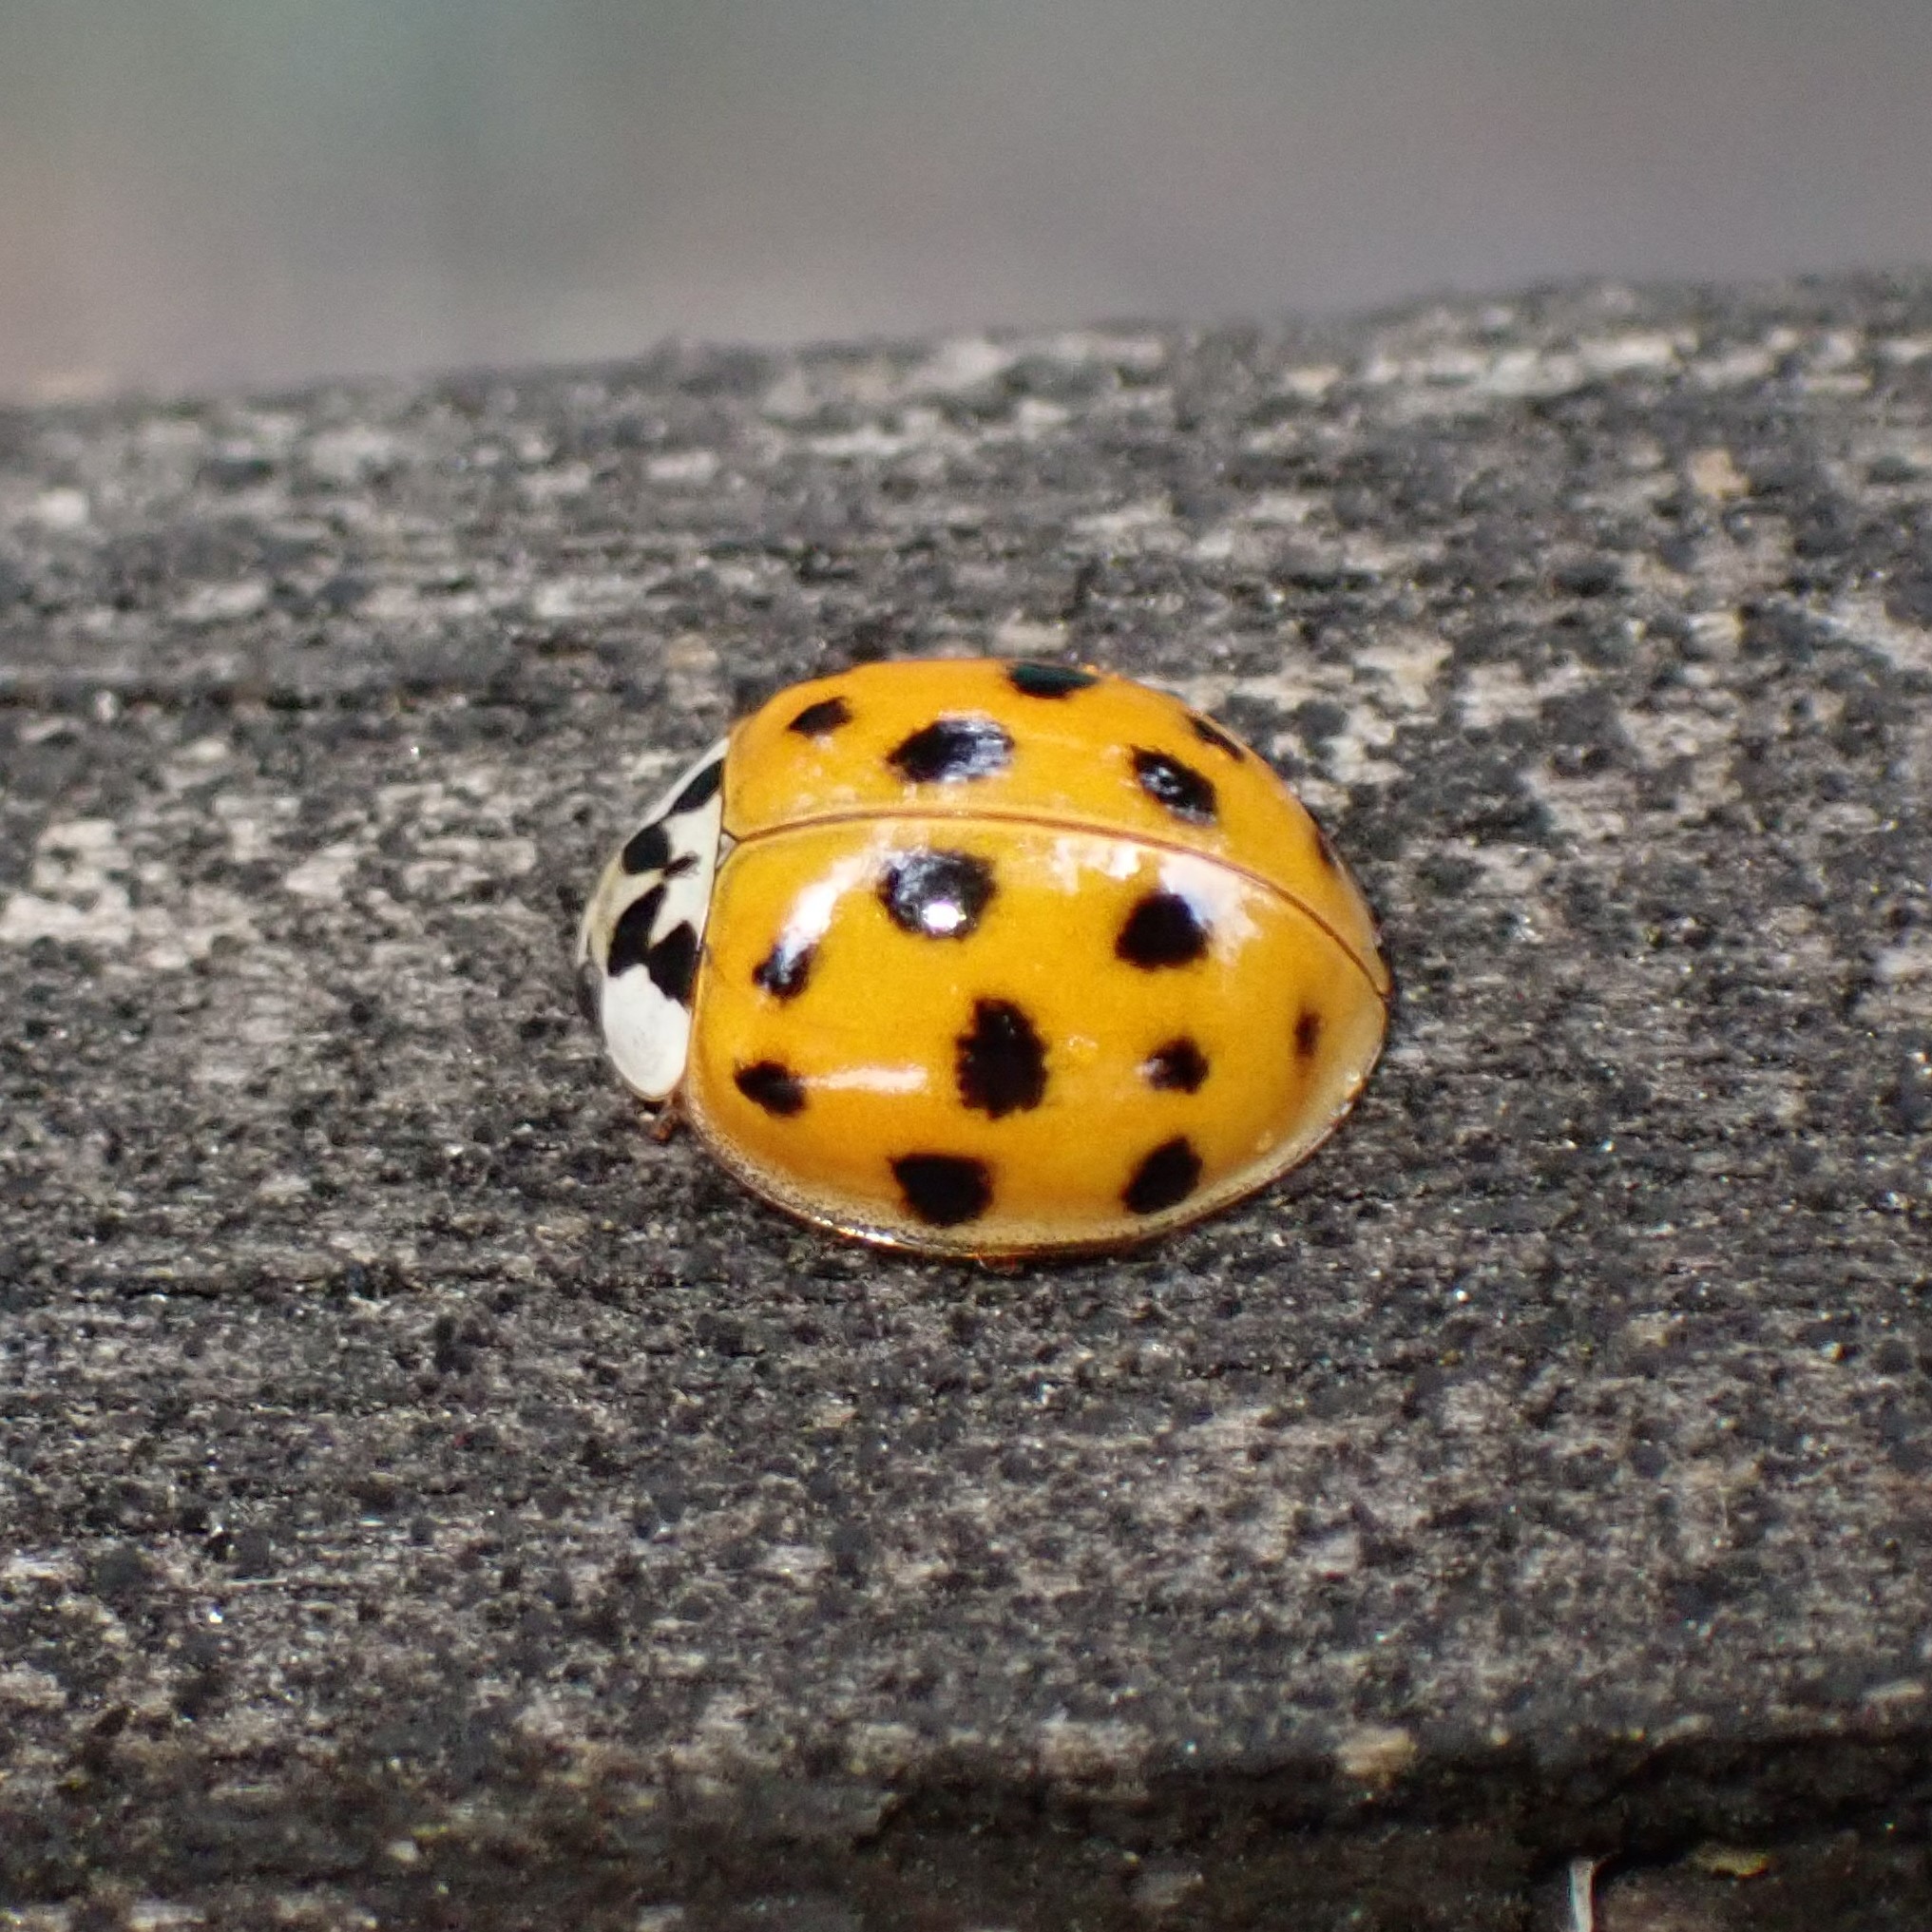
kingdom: Animalia
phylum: Arthropoda
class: Insecta
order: Coleoptera
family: Coccinellidae
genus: Harmonia
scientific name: Harmonia axyridis
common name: Harlequin ladybird
